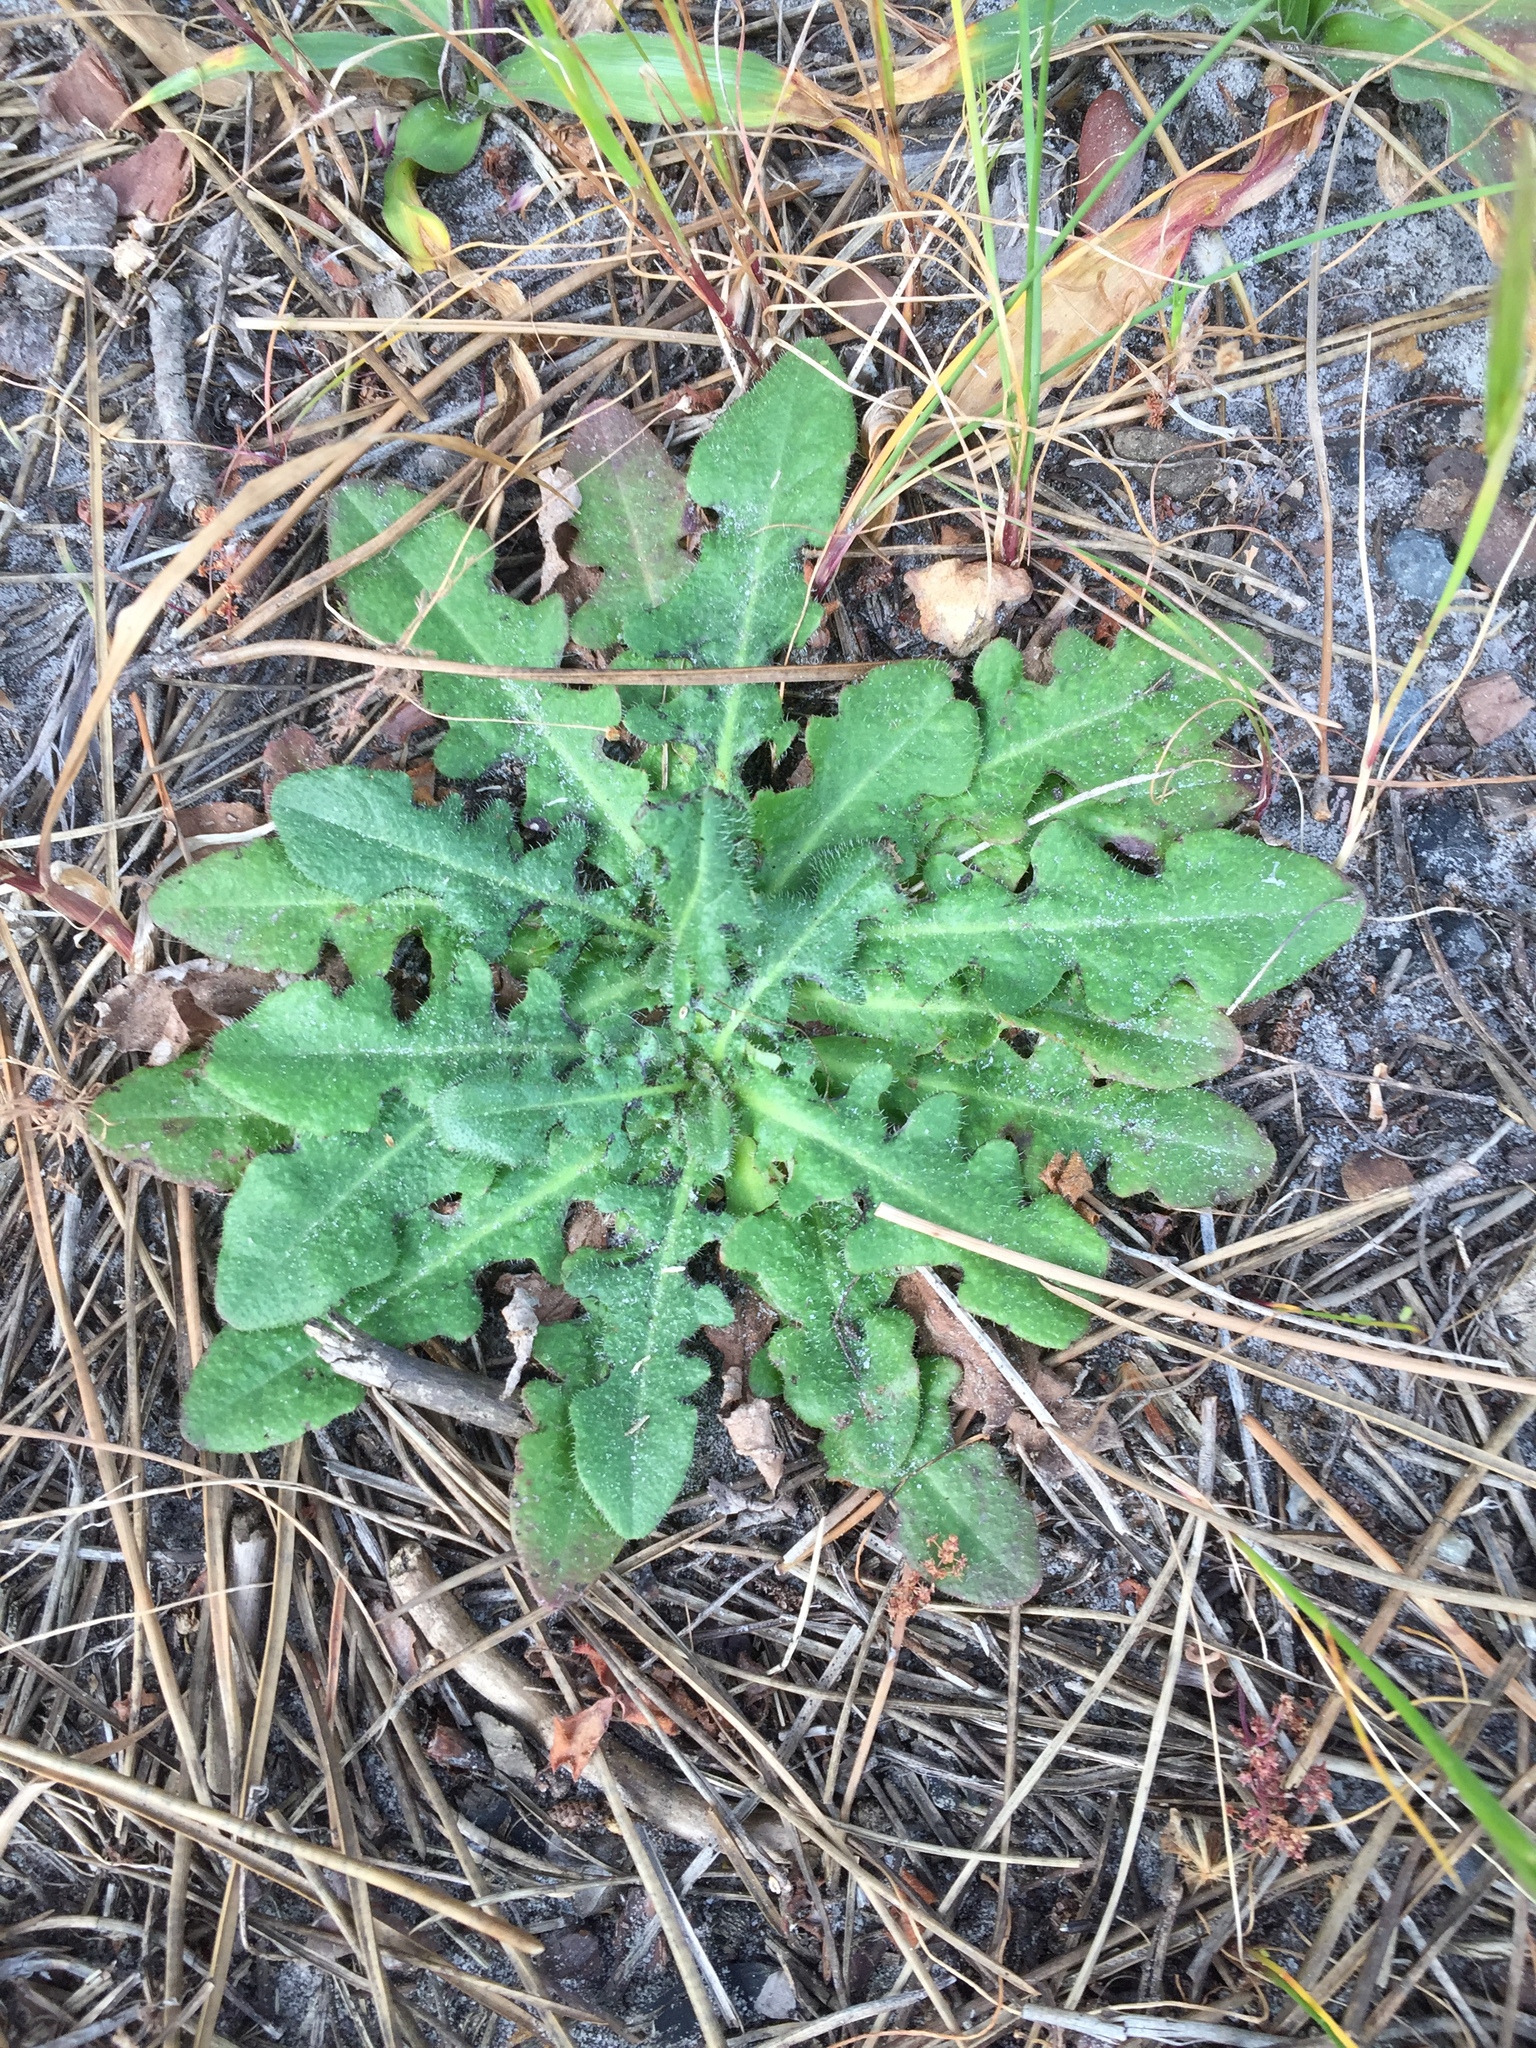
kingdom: Plantae
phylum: Tracheophyta
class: Magnoliopsida
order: Asterales
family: Asteraceae
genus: Hypochaeris
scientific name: Hypochaeris radicata
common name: Flatweed
